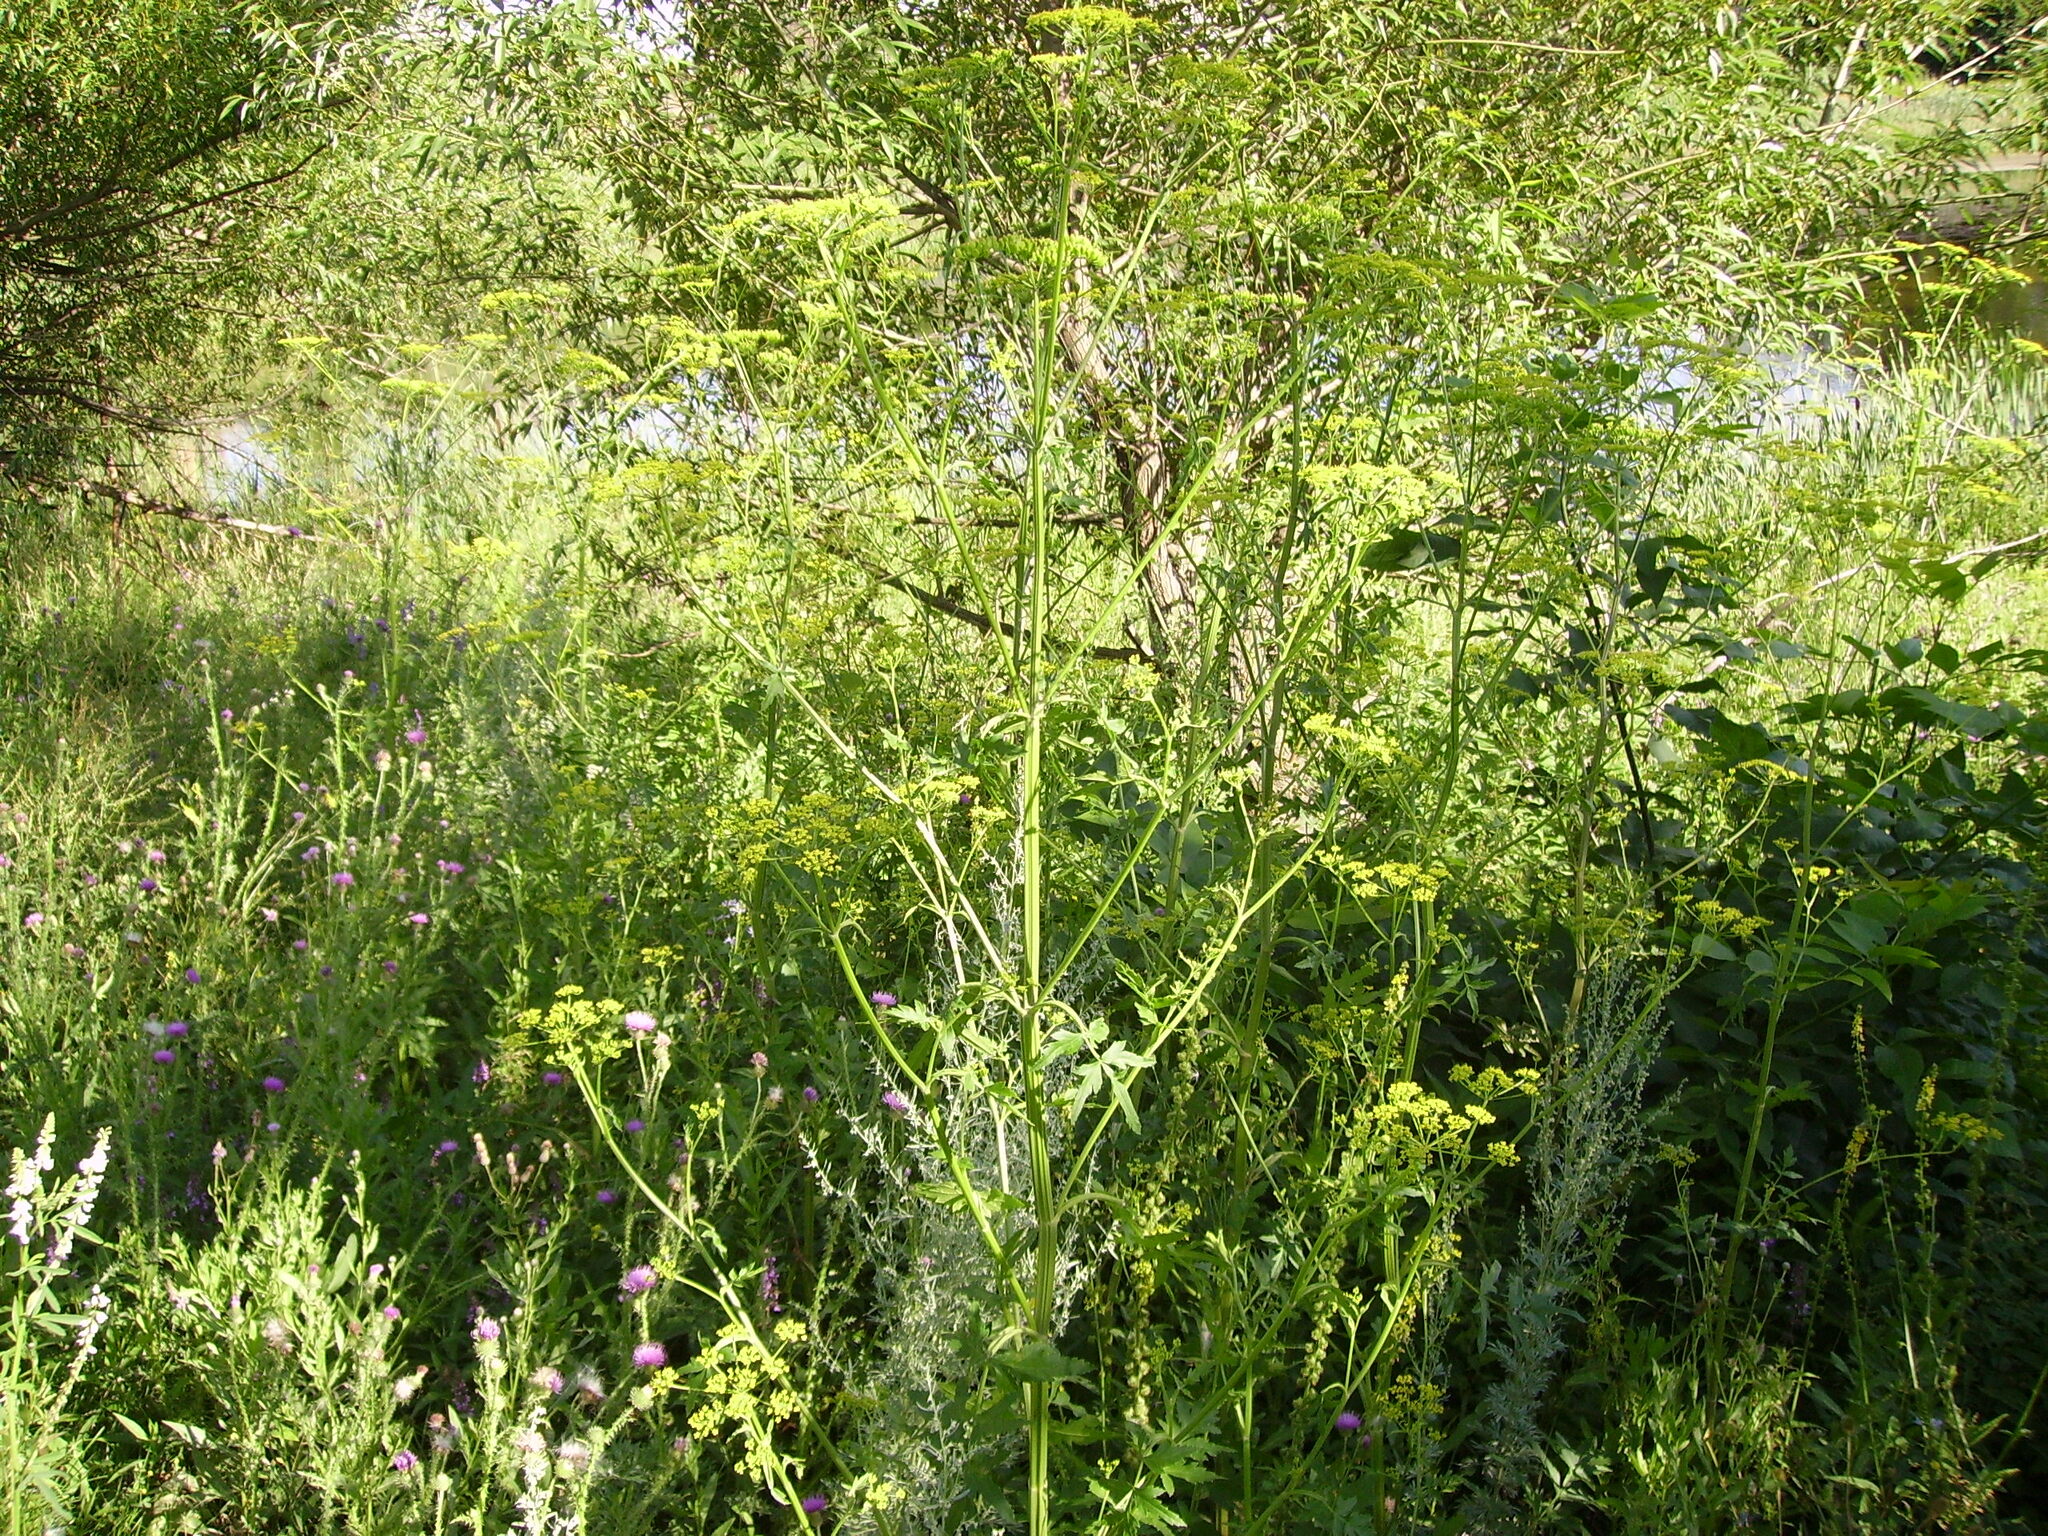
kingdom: Plantae
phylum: Tracheophyta
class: Magnoliopsida
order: Apiales
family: Apiaceae
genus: Pastinaca
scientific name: Pastinaca sativa
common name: Wild parsnip
